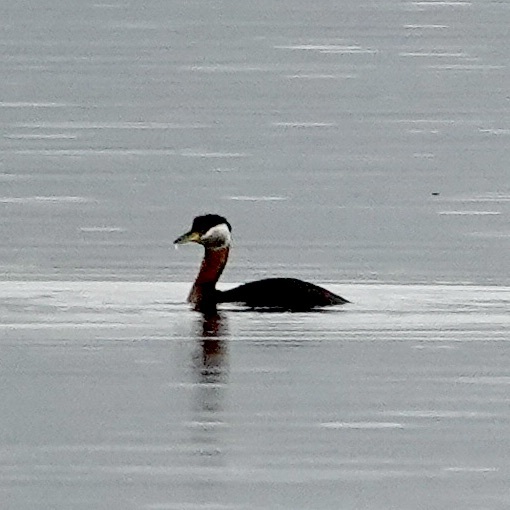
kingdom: Animalia
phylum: Chordata
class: Aves
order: Podicipediformes
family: Podicipedidae
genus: Podiceps
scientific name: Podiceps grisegena
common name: Red-necked grebe
